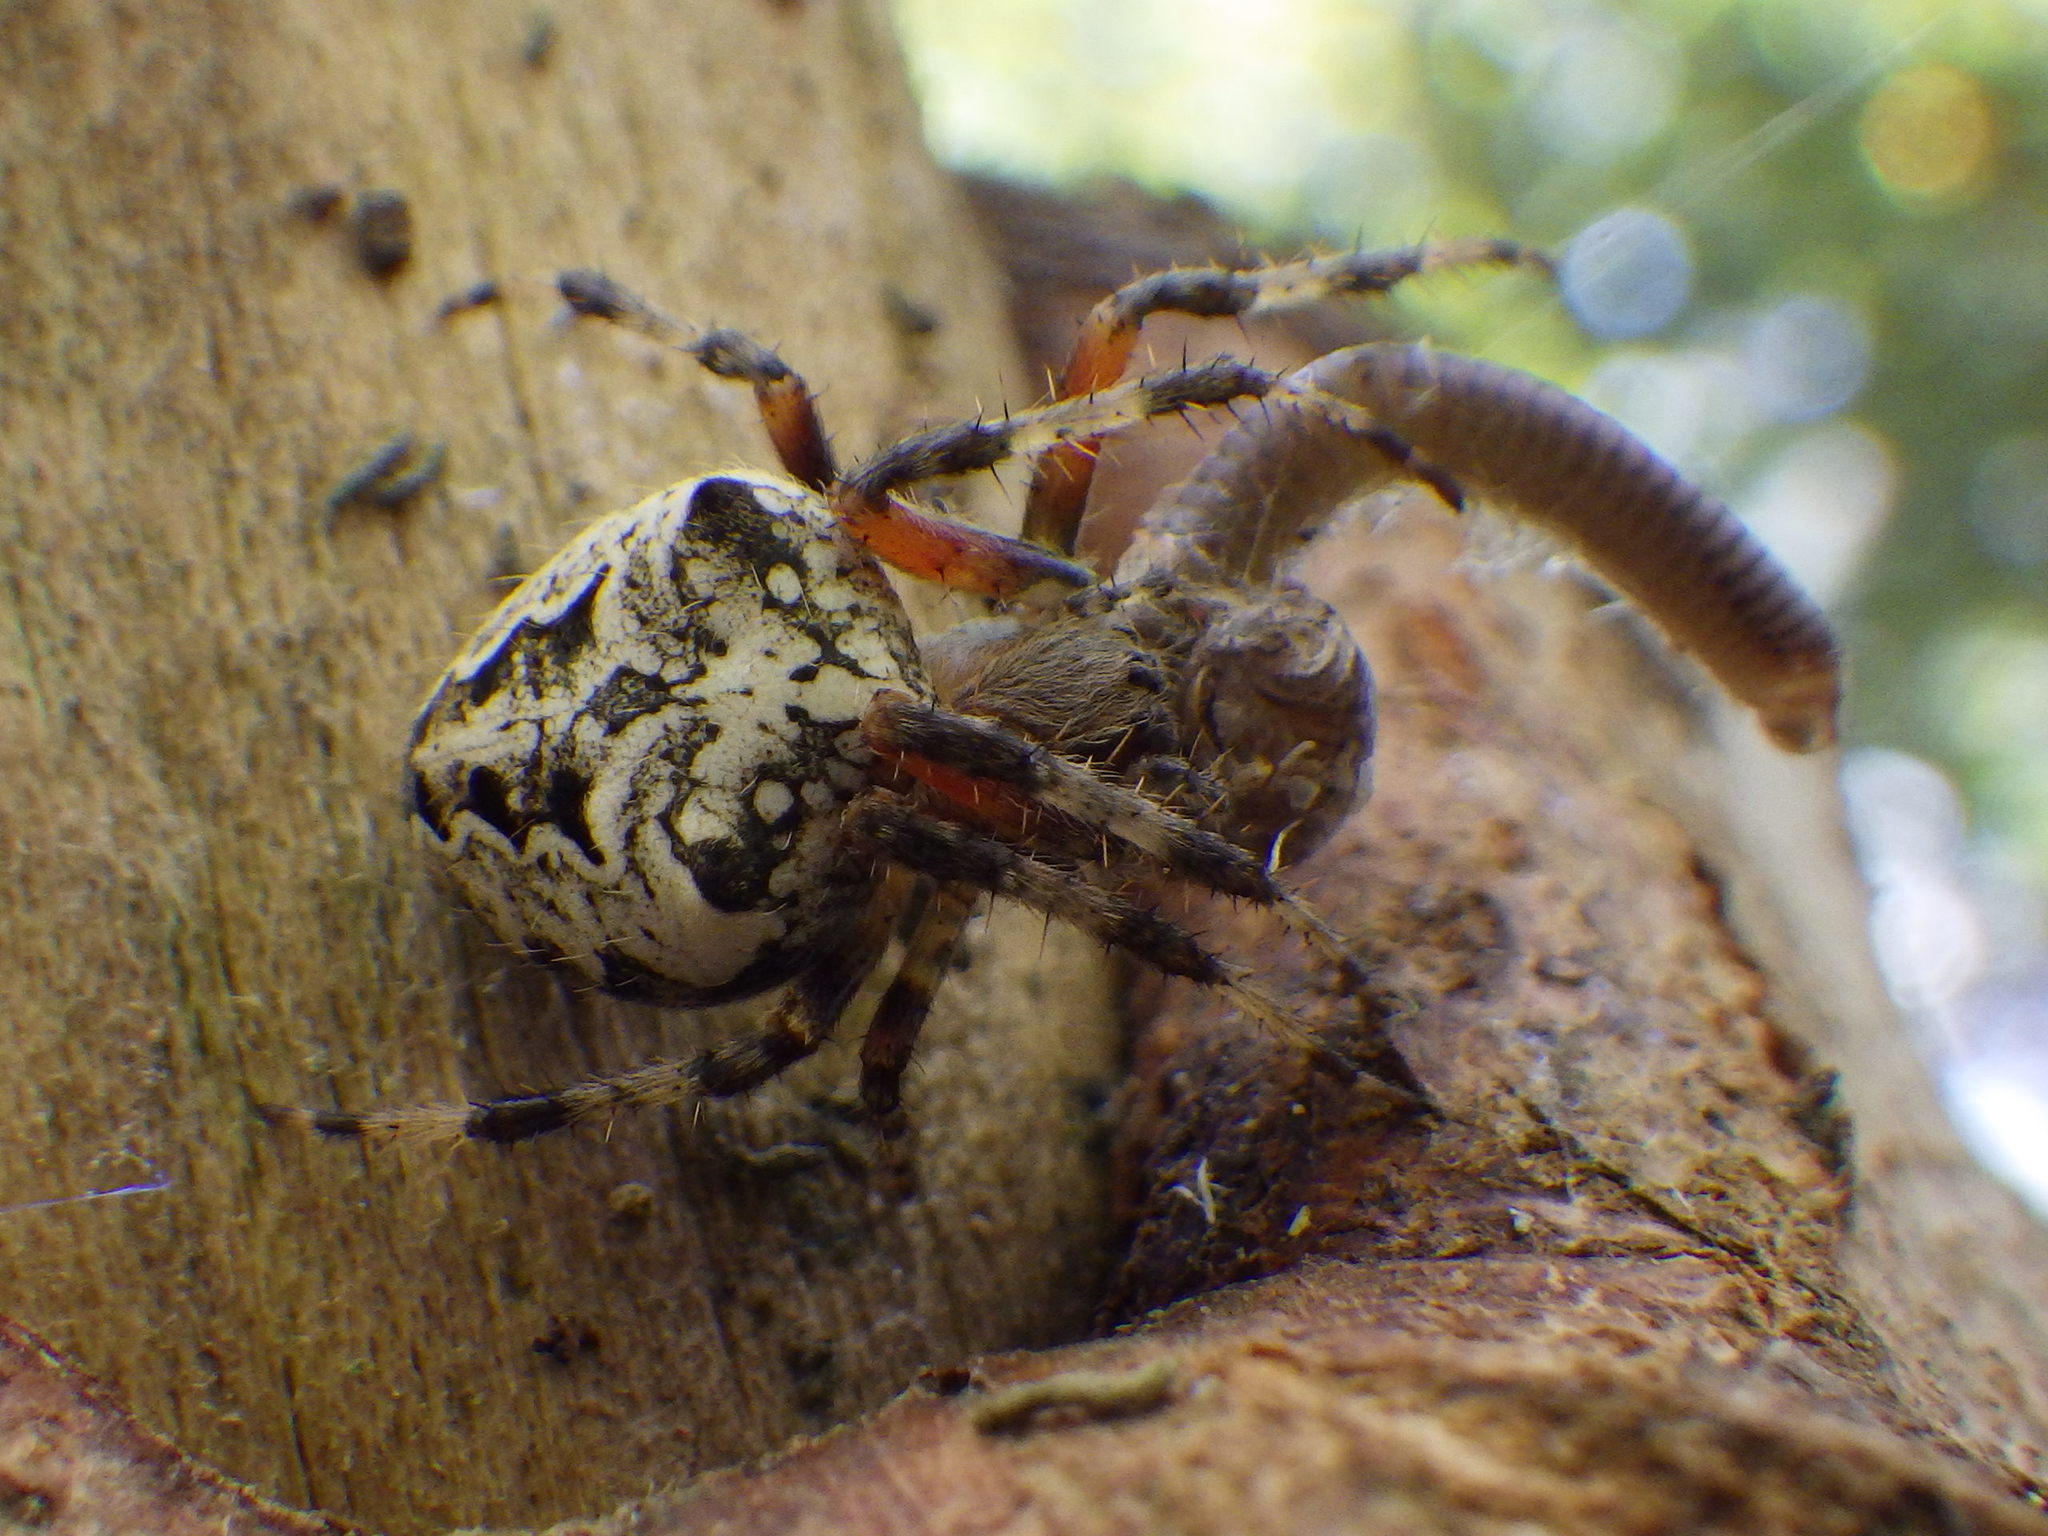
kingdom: Animalia
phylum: Arthropoda
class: Arachnida
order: Araneae
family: Araneidae
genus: Araneus
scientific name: Araneus nordmanni
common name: Nordmann's orbweaver
